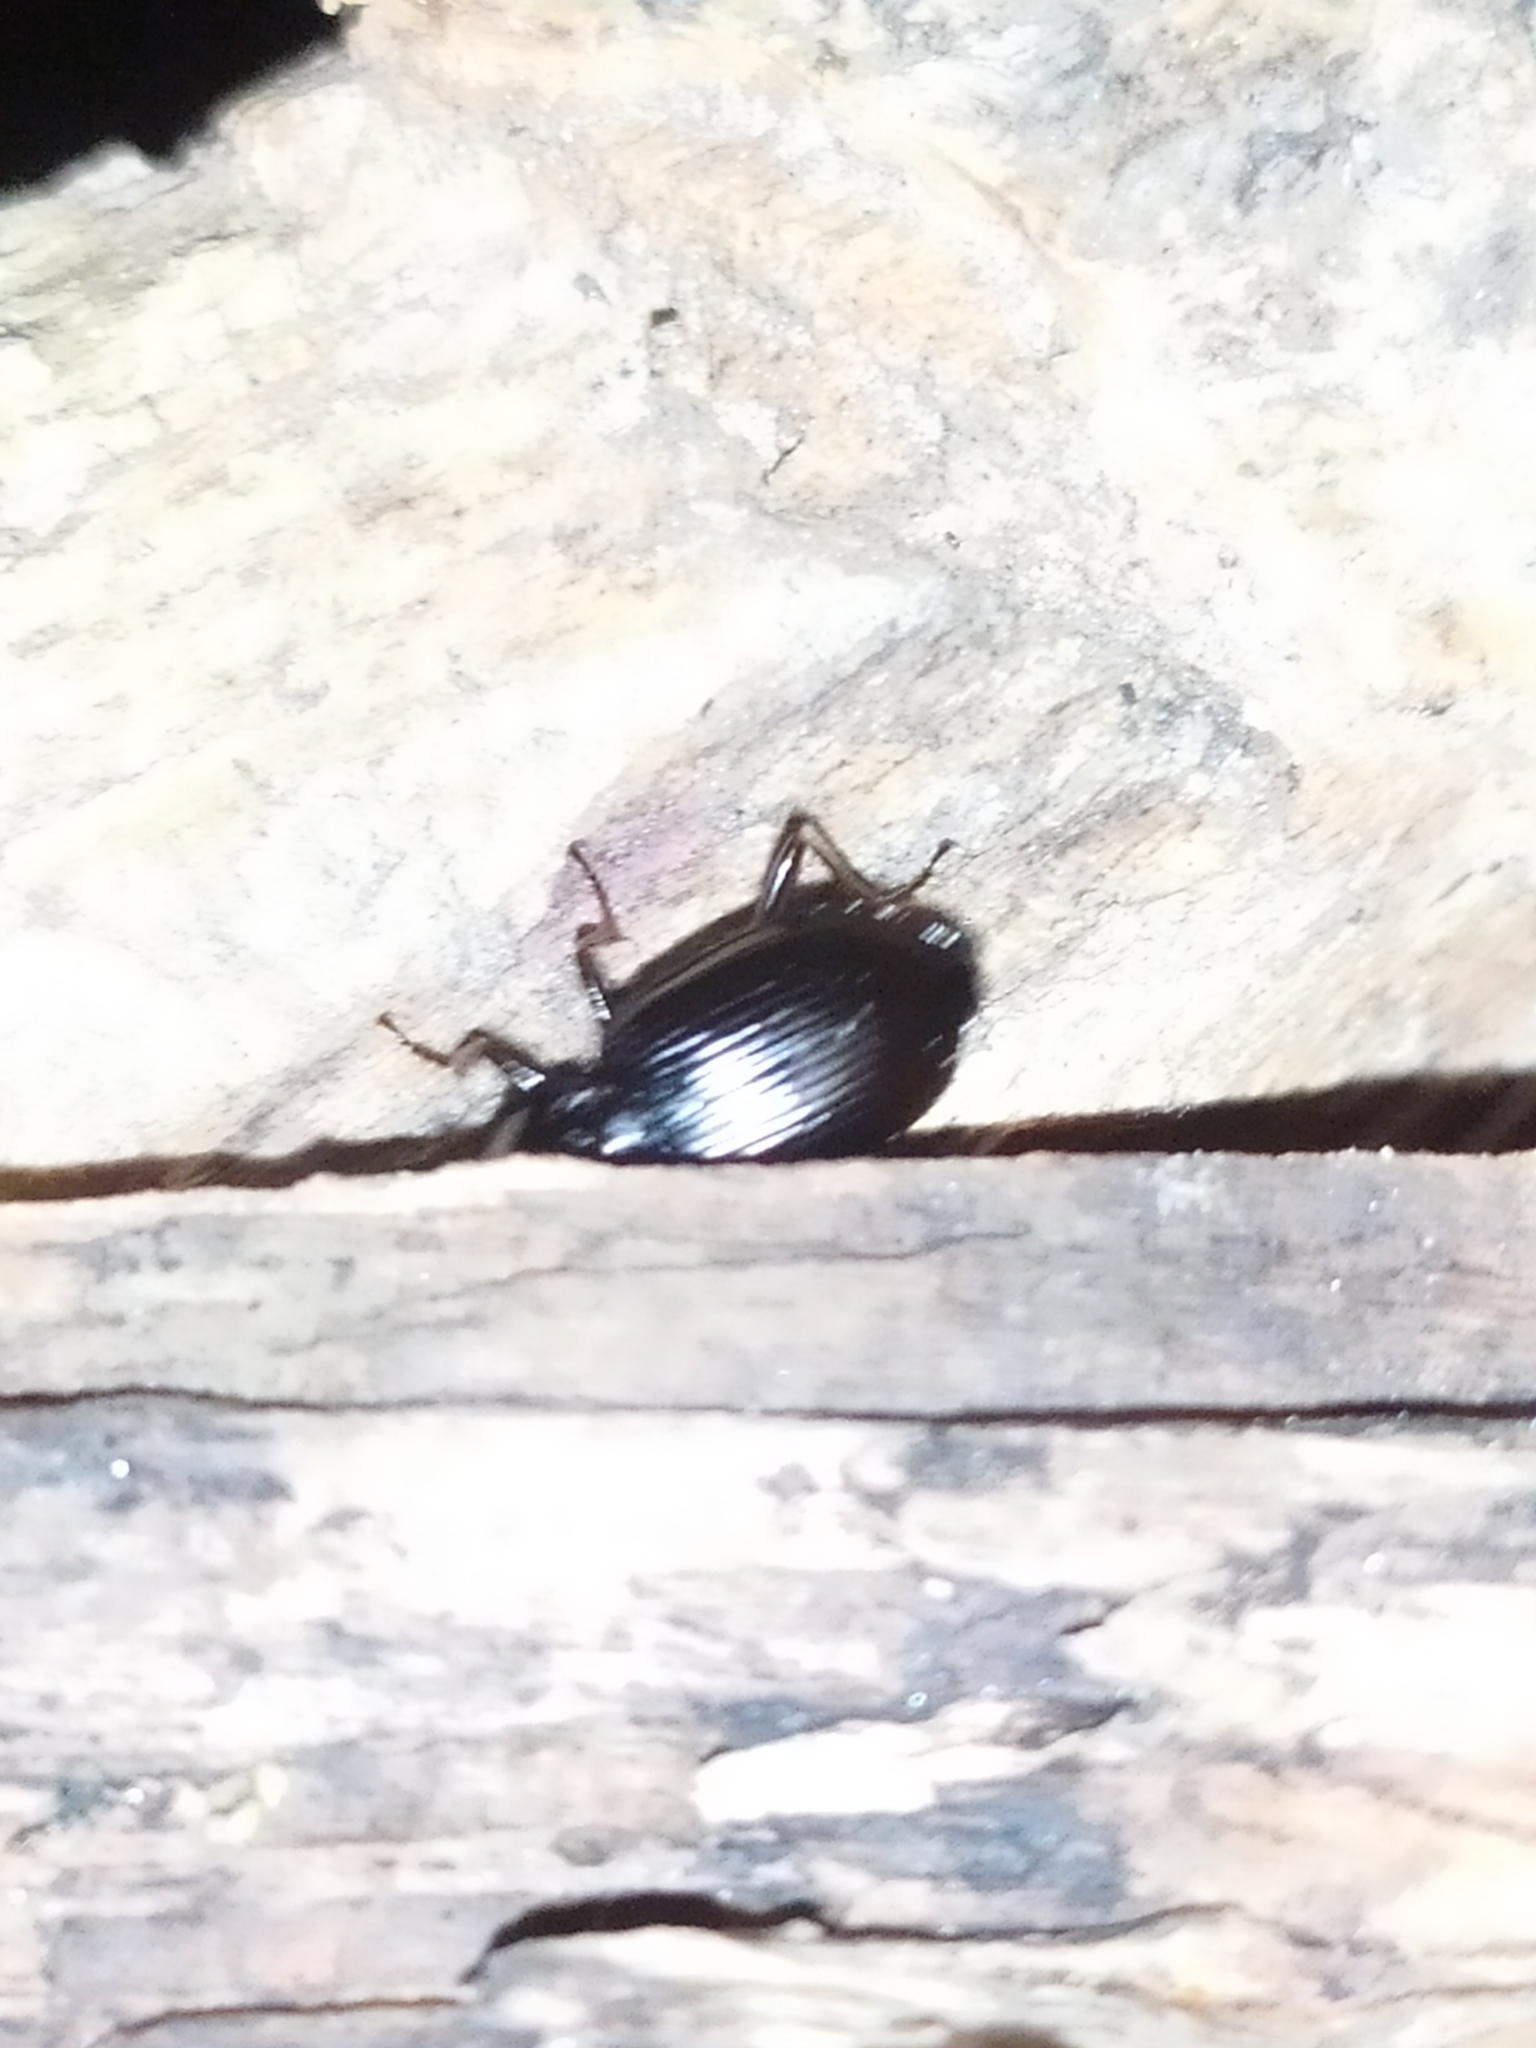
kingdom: Animalia
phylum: Arthropoda
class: Insecta
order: Coleoptera
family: Carabidae
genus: Platynus
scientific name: Platynus assimilis
